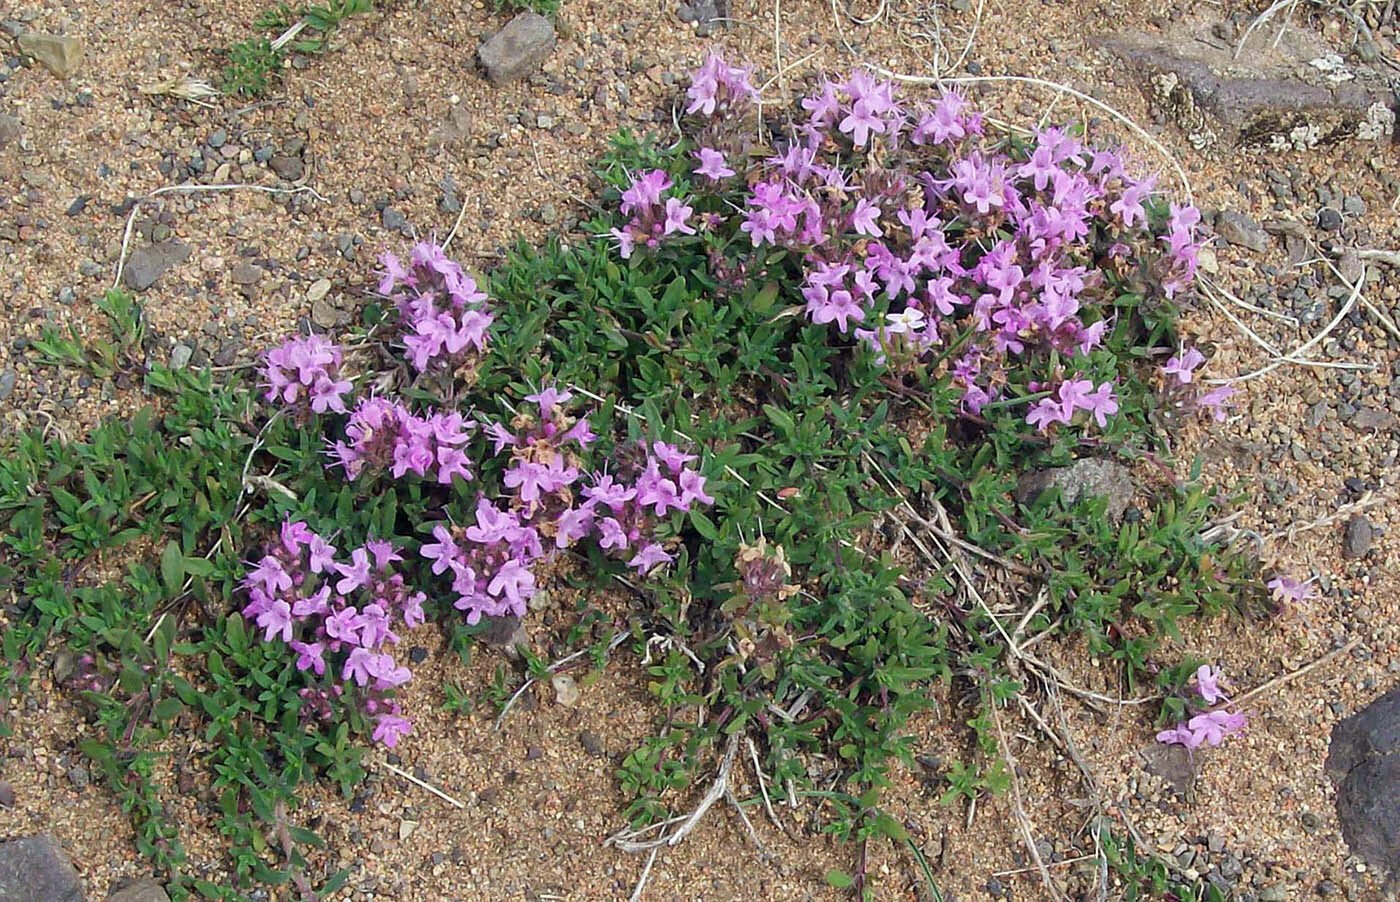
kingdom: Plantae
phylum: Tracheophyta
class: Magnoliopsida
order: Lamiales
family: Lamiaceae
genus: Thymus
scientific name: Thymus gobicus
